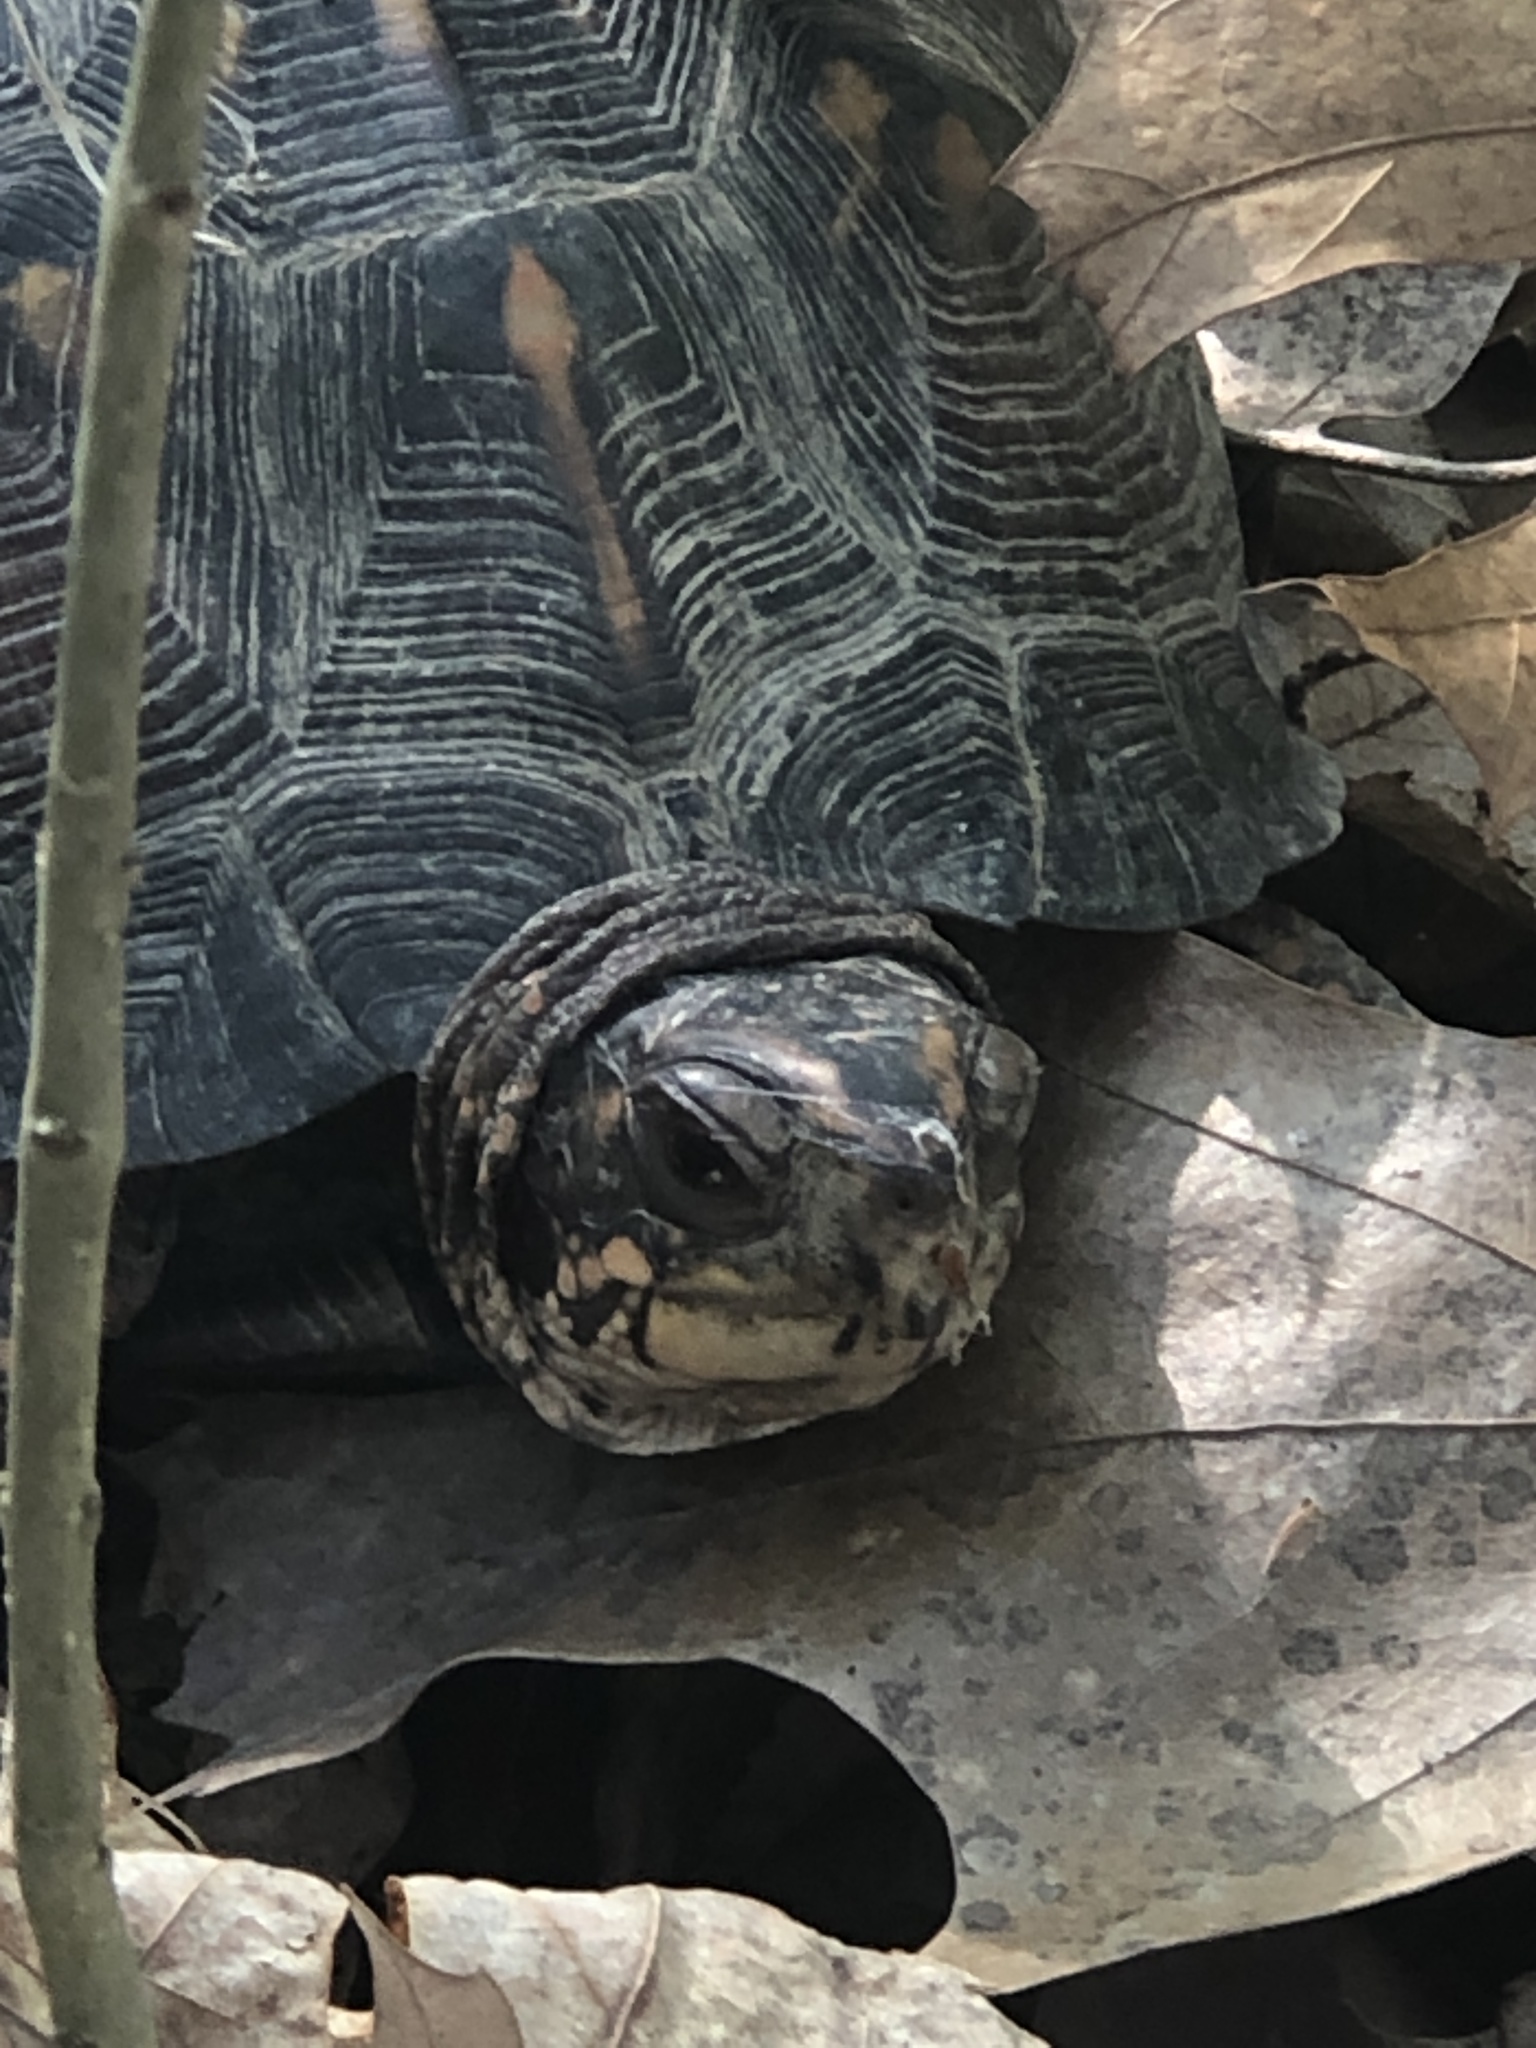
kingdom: Animalia
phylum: Chordata
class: Testudines
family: Emydidae
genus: Terrapene
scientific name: Terrapene carolina
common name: Common box turtle
